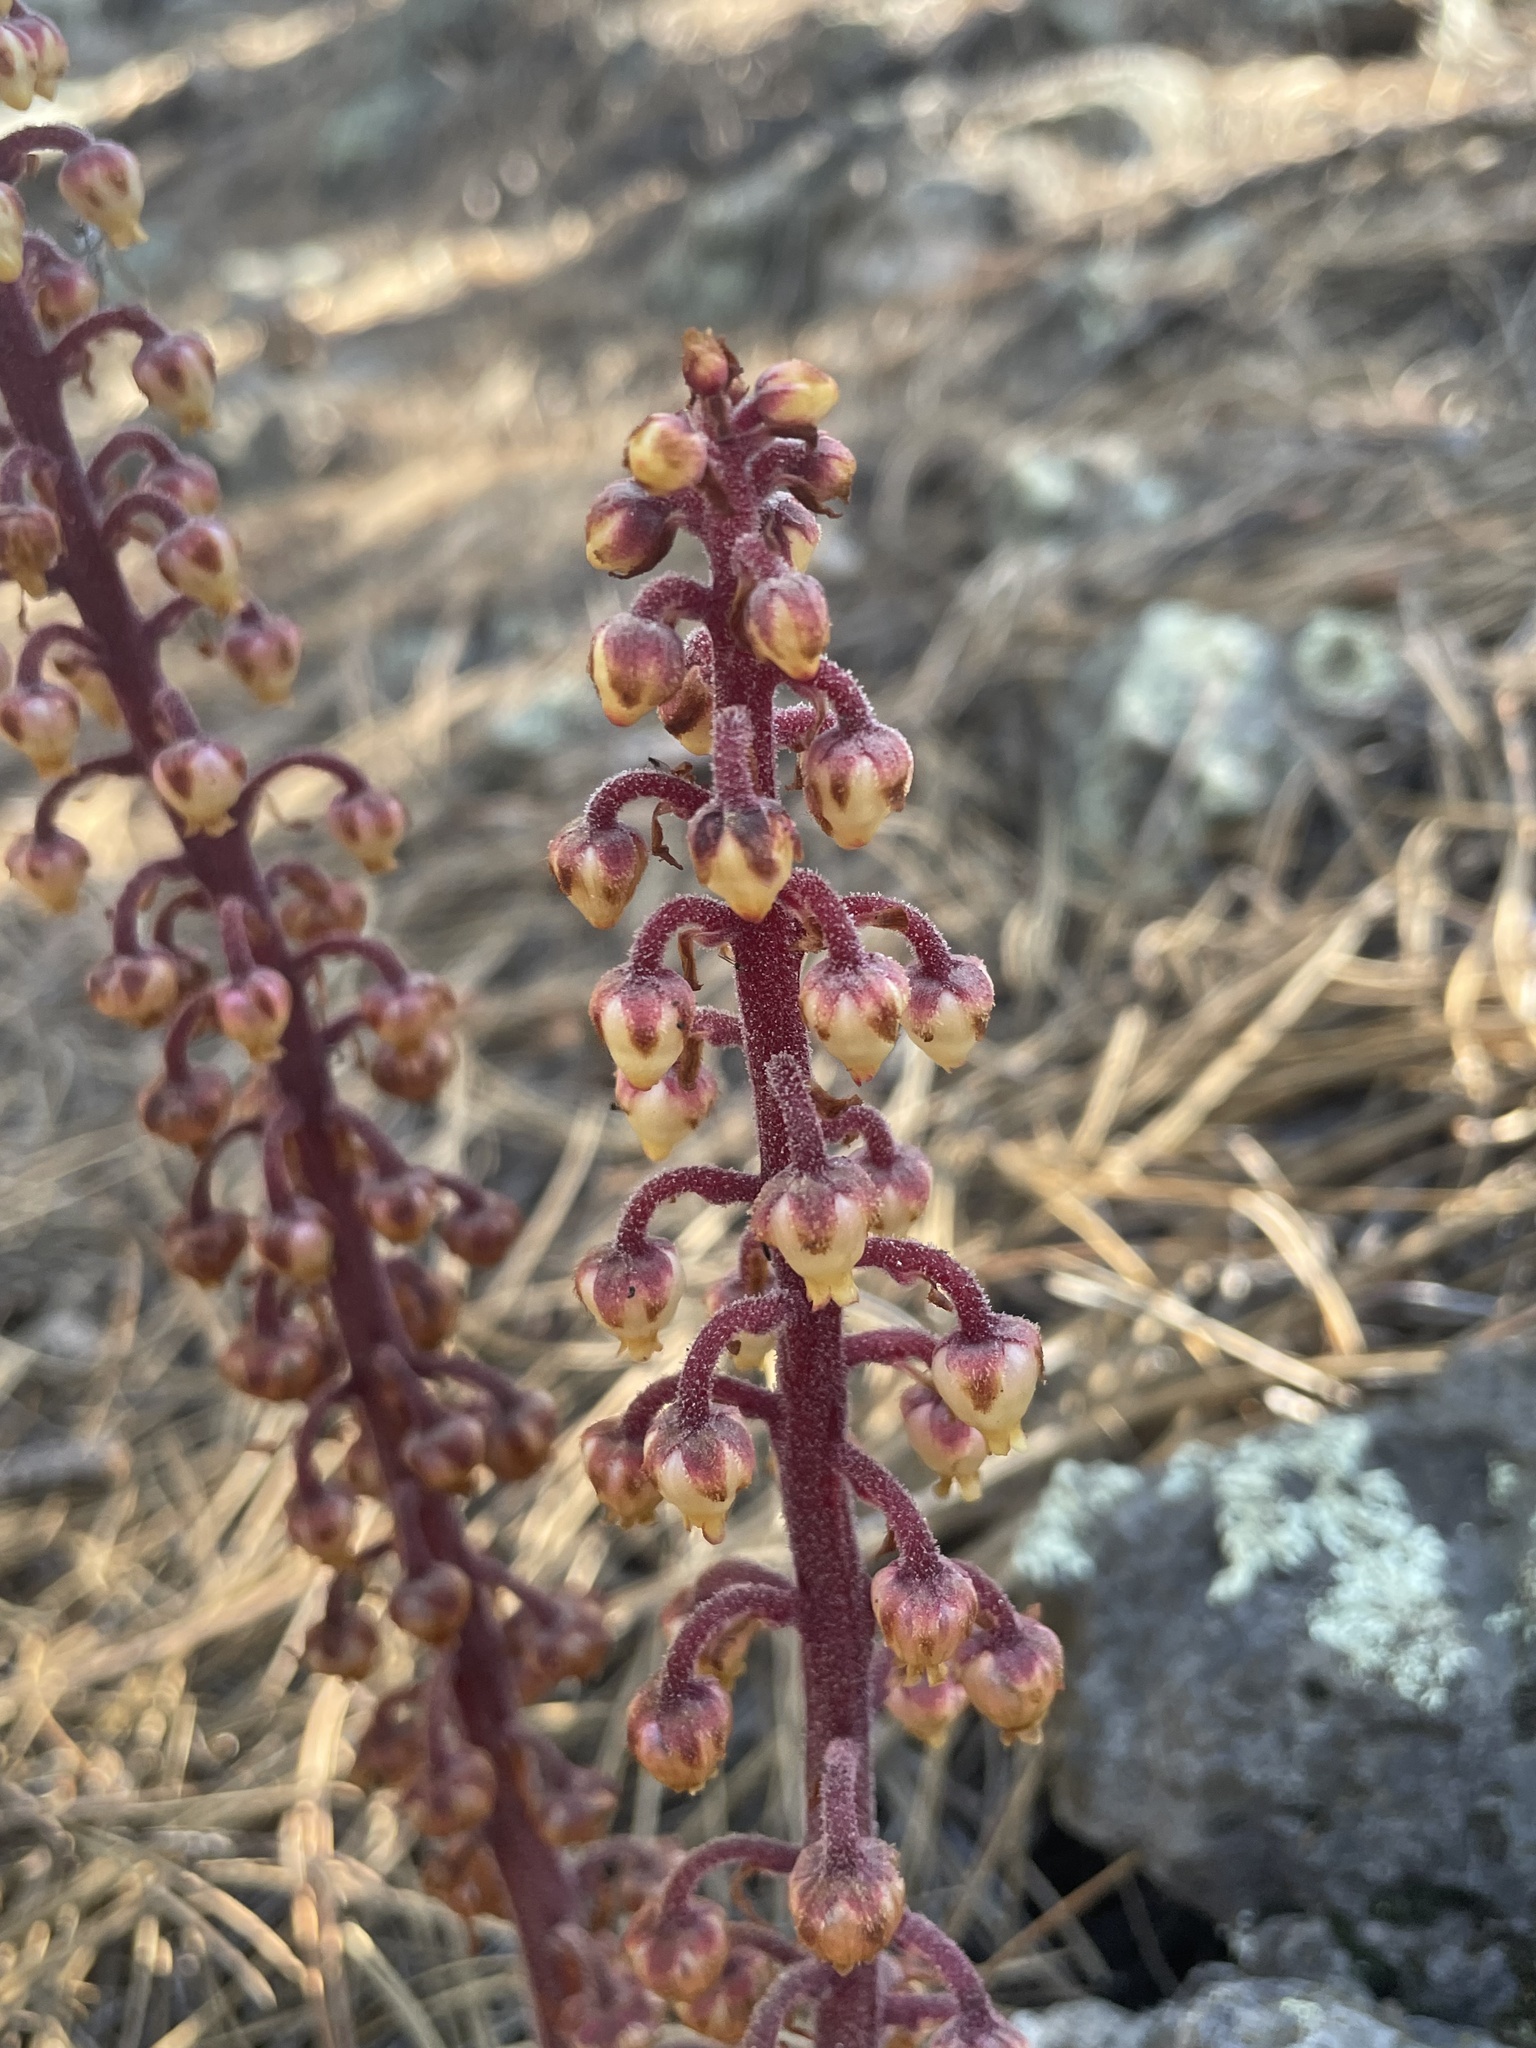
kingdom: Plantae
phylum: Tracheophyta
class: Magnoliopsida
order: Ericales
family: Ericaceae
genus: Pterospora
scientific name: Pterospora andromedea
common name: Giant bird's-nest
